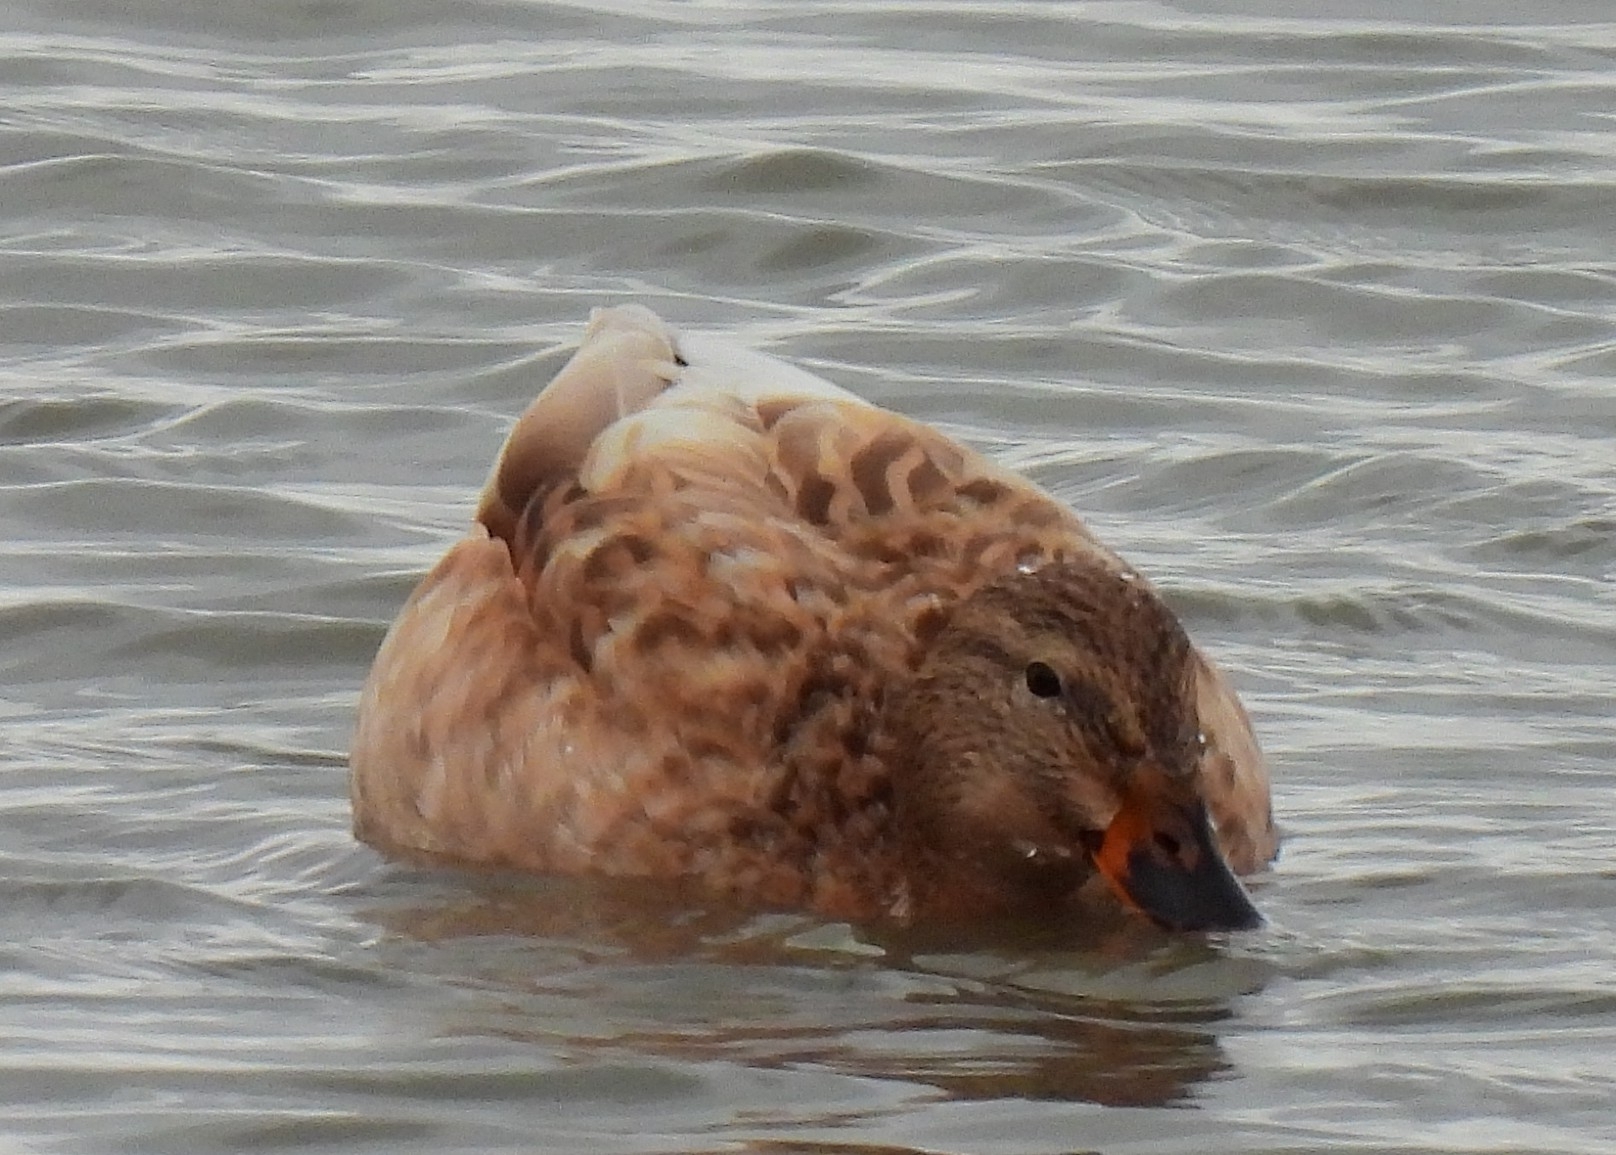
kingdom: Animalia
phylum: Chordata
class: Aves
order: Anseriformes
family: Anatidae
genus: Anas
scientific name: Anas platyrhynchos
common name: Mallard
